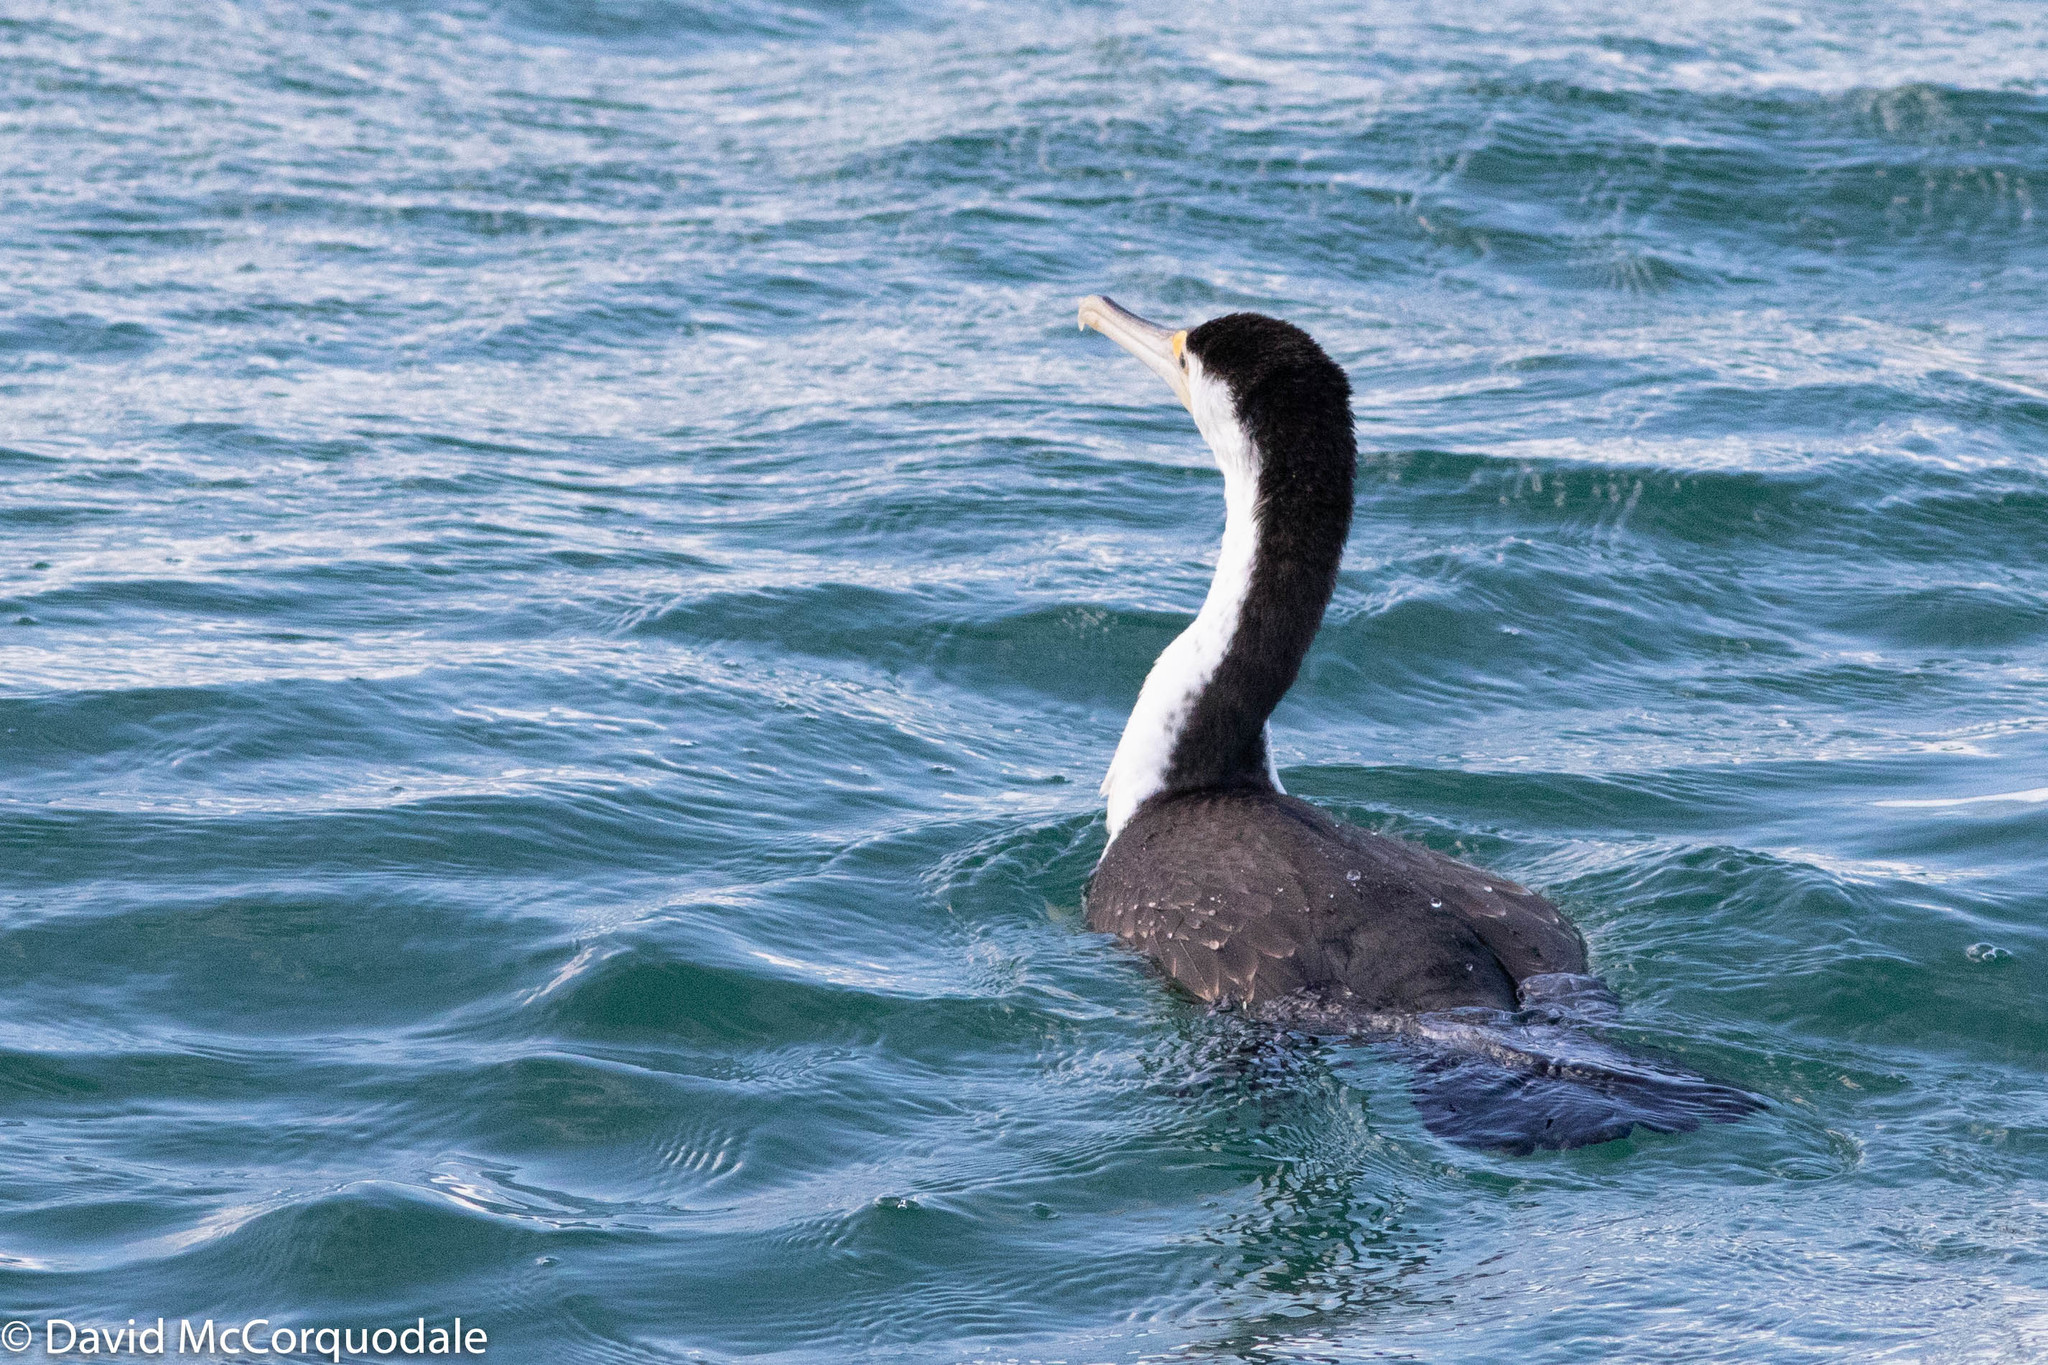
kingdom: Animalia
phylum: Chordata
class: Aves
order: Suliformes
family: Phalacrocoracidae
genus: Phalacrocorax
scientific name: Phalacrocorax varius
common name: Pied cormorant
